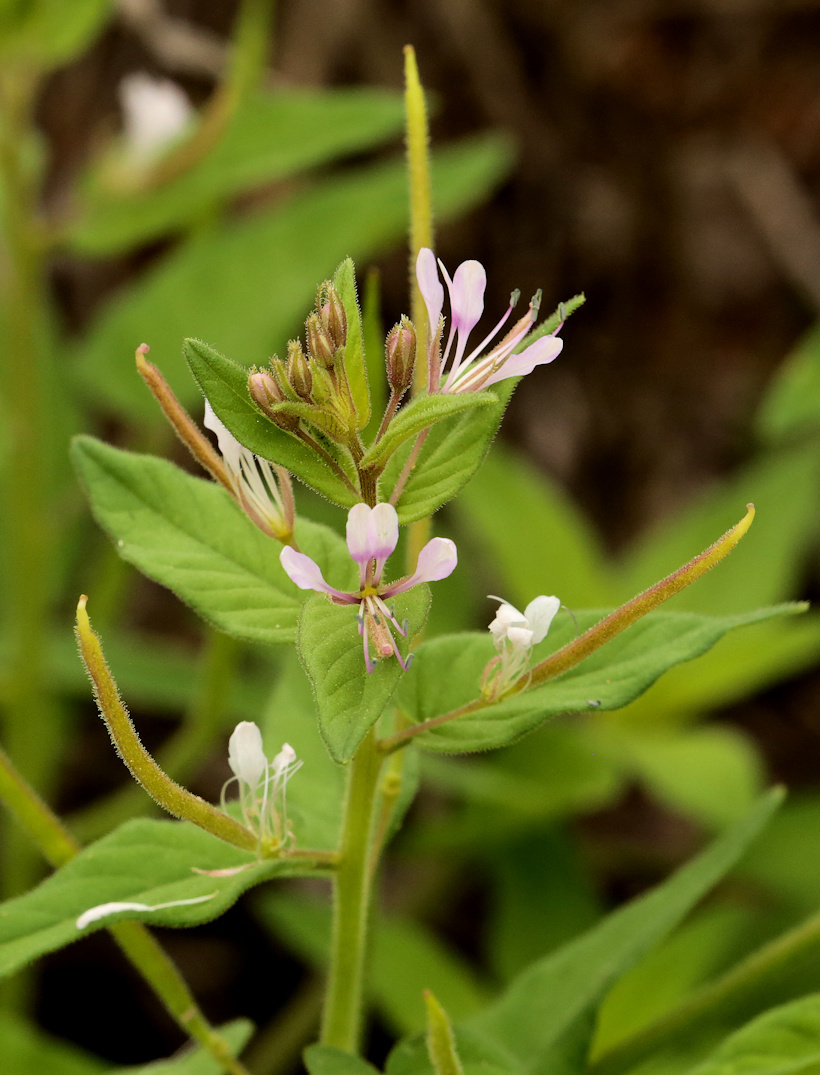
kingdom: Plantae
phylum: Tracheophyta
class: Magnoliopsida
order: Brassicales
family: Cleomaceae
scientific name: Cleomaceae
